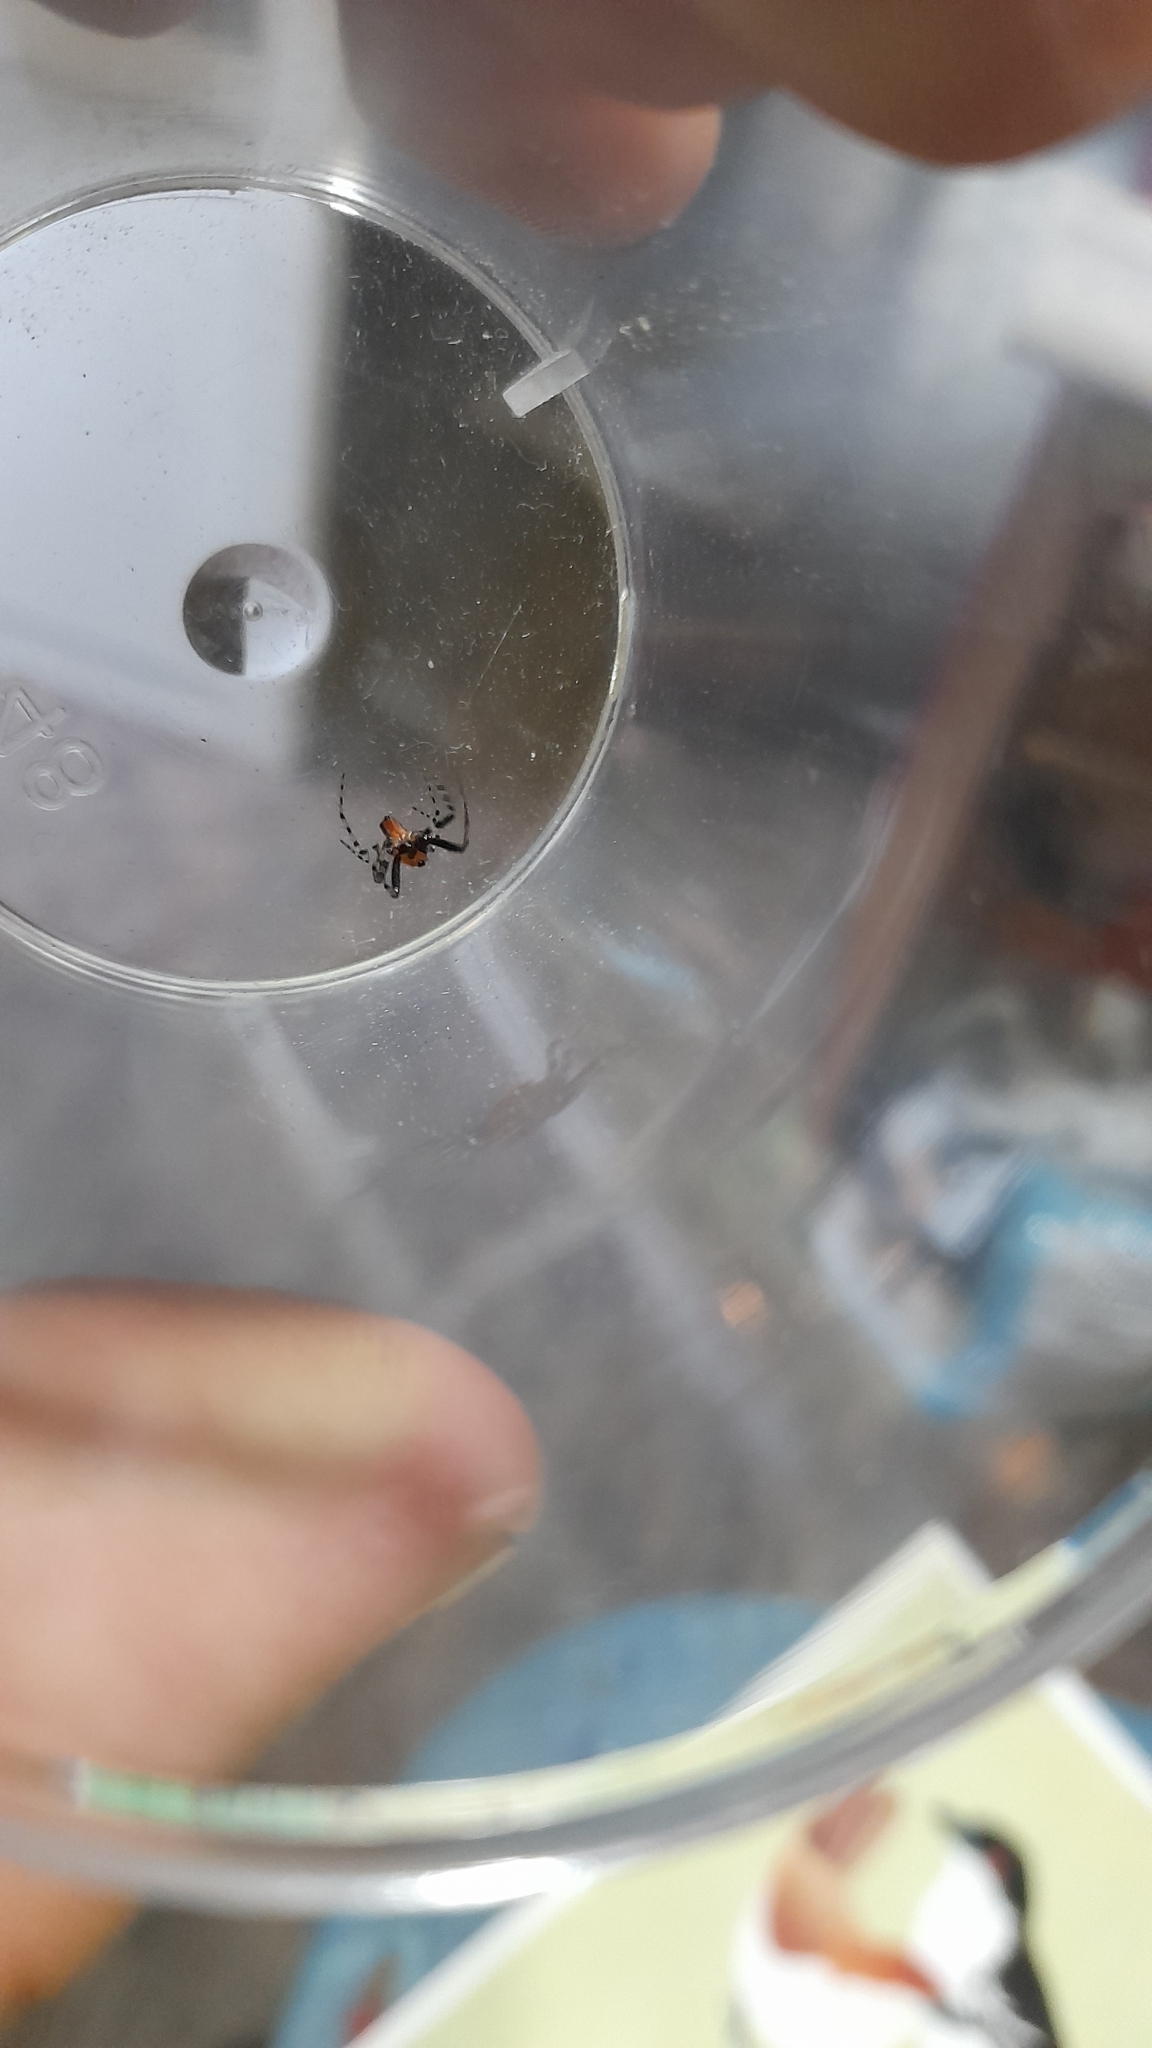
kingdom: Animalia
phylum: Arthropoda
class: Arachnida
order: Araneae
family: Araneidae
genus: Alpaida
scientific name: Alpaida gallardoi
